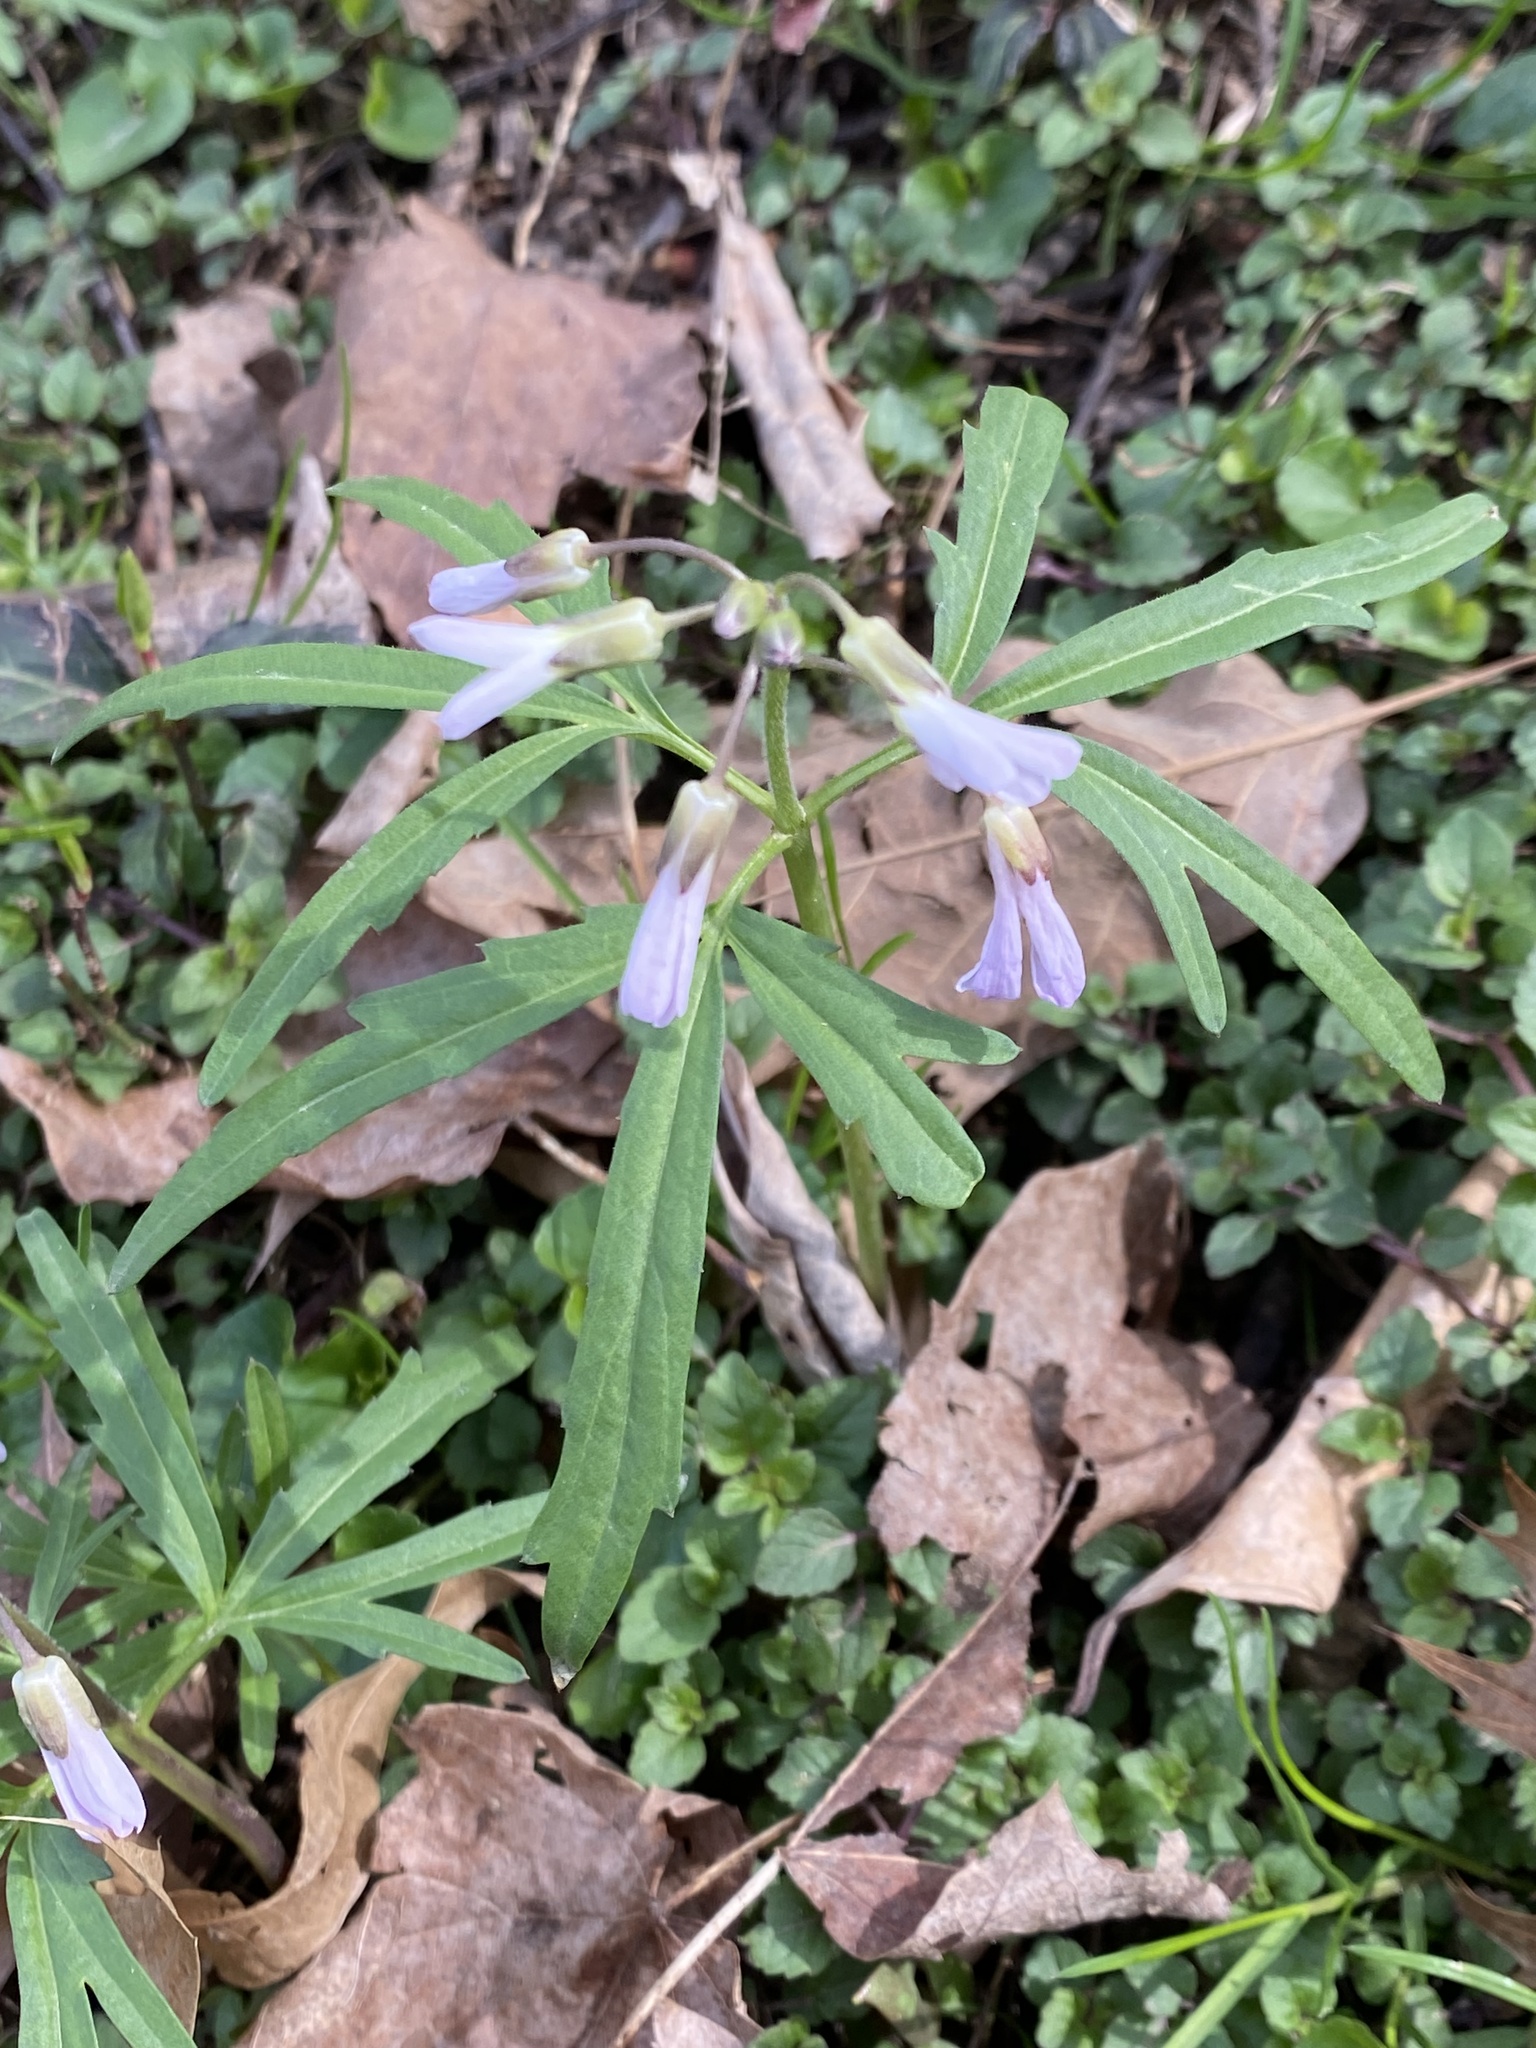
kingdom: Plantae
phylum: Tracheophyta
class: Magnoliopsida
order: Brassicales
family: Brassicaceae
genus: Cardamine
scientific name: Cardamine concatenata
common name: Cut-leaf toothcup
